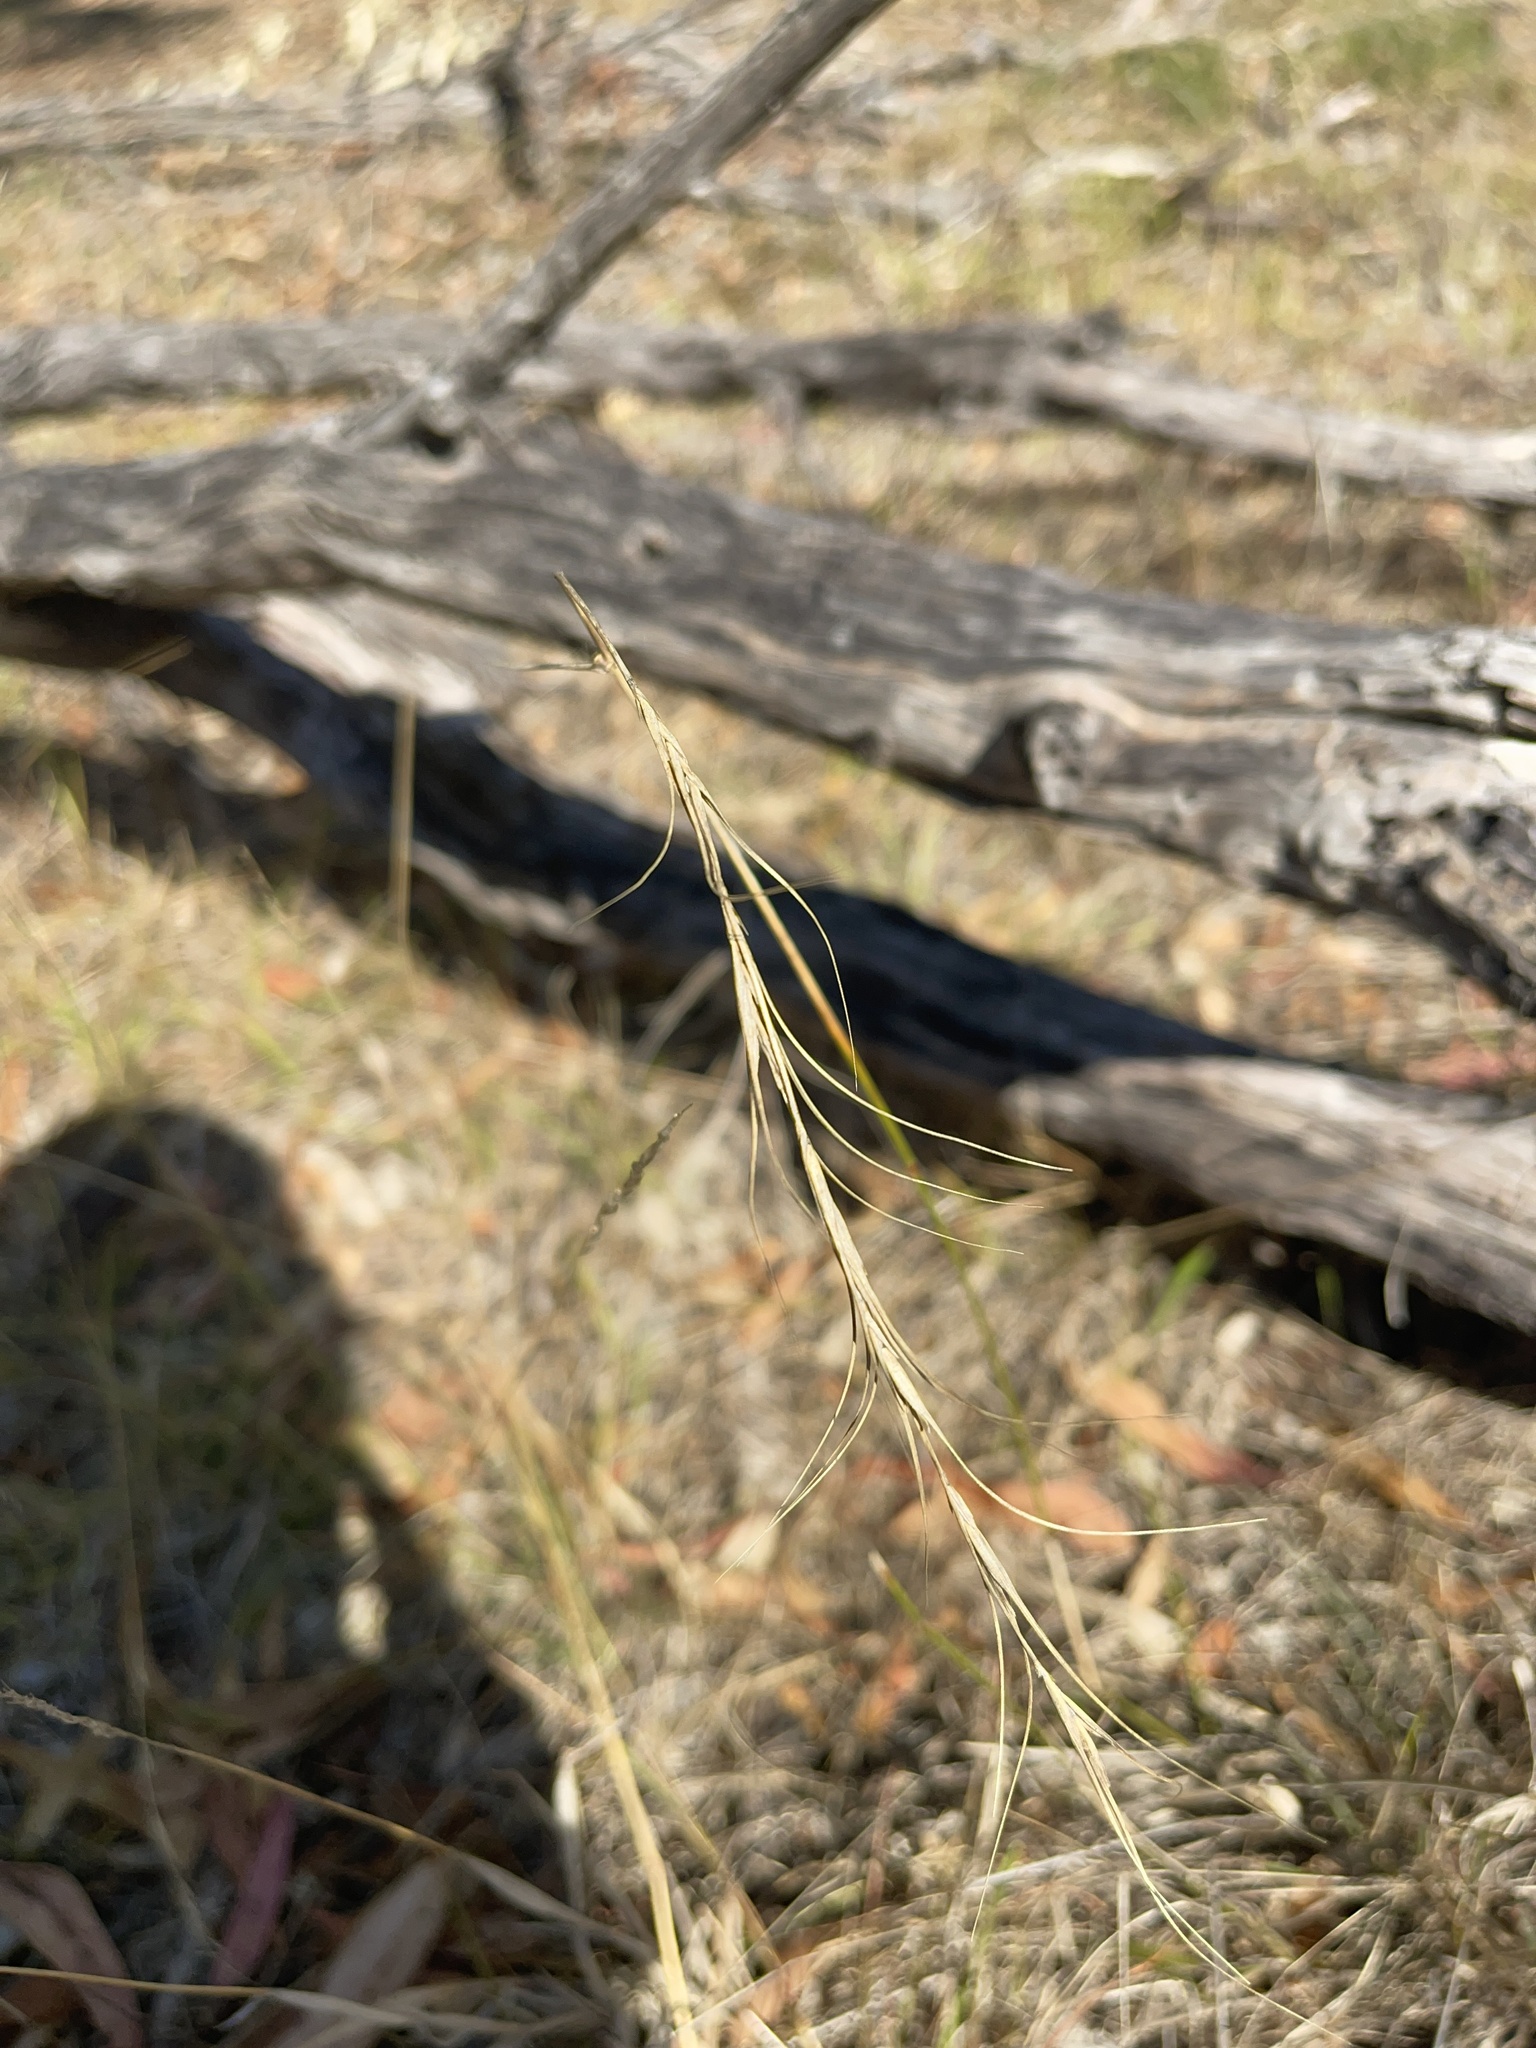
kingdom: Plantae
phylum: Tracheophyta
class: Liliopsida
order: Poales
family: Poaceae
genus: Anthosachne
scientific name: Anthosachne scabra
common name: Common wheatgrass
